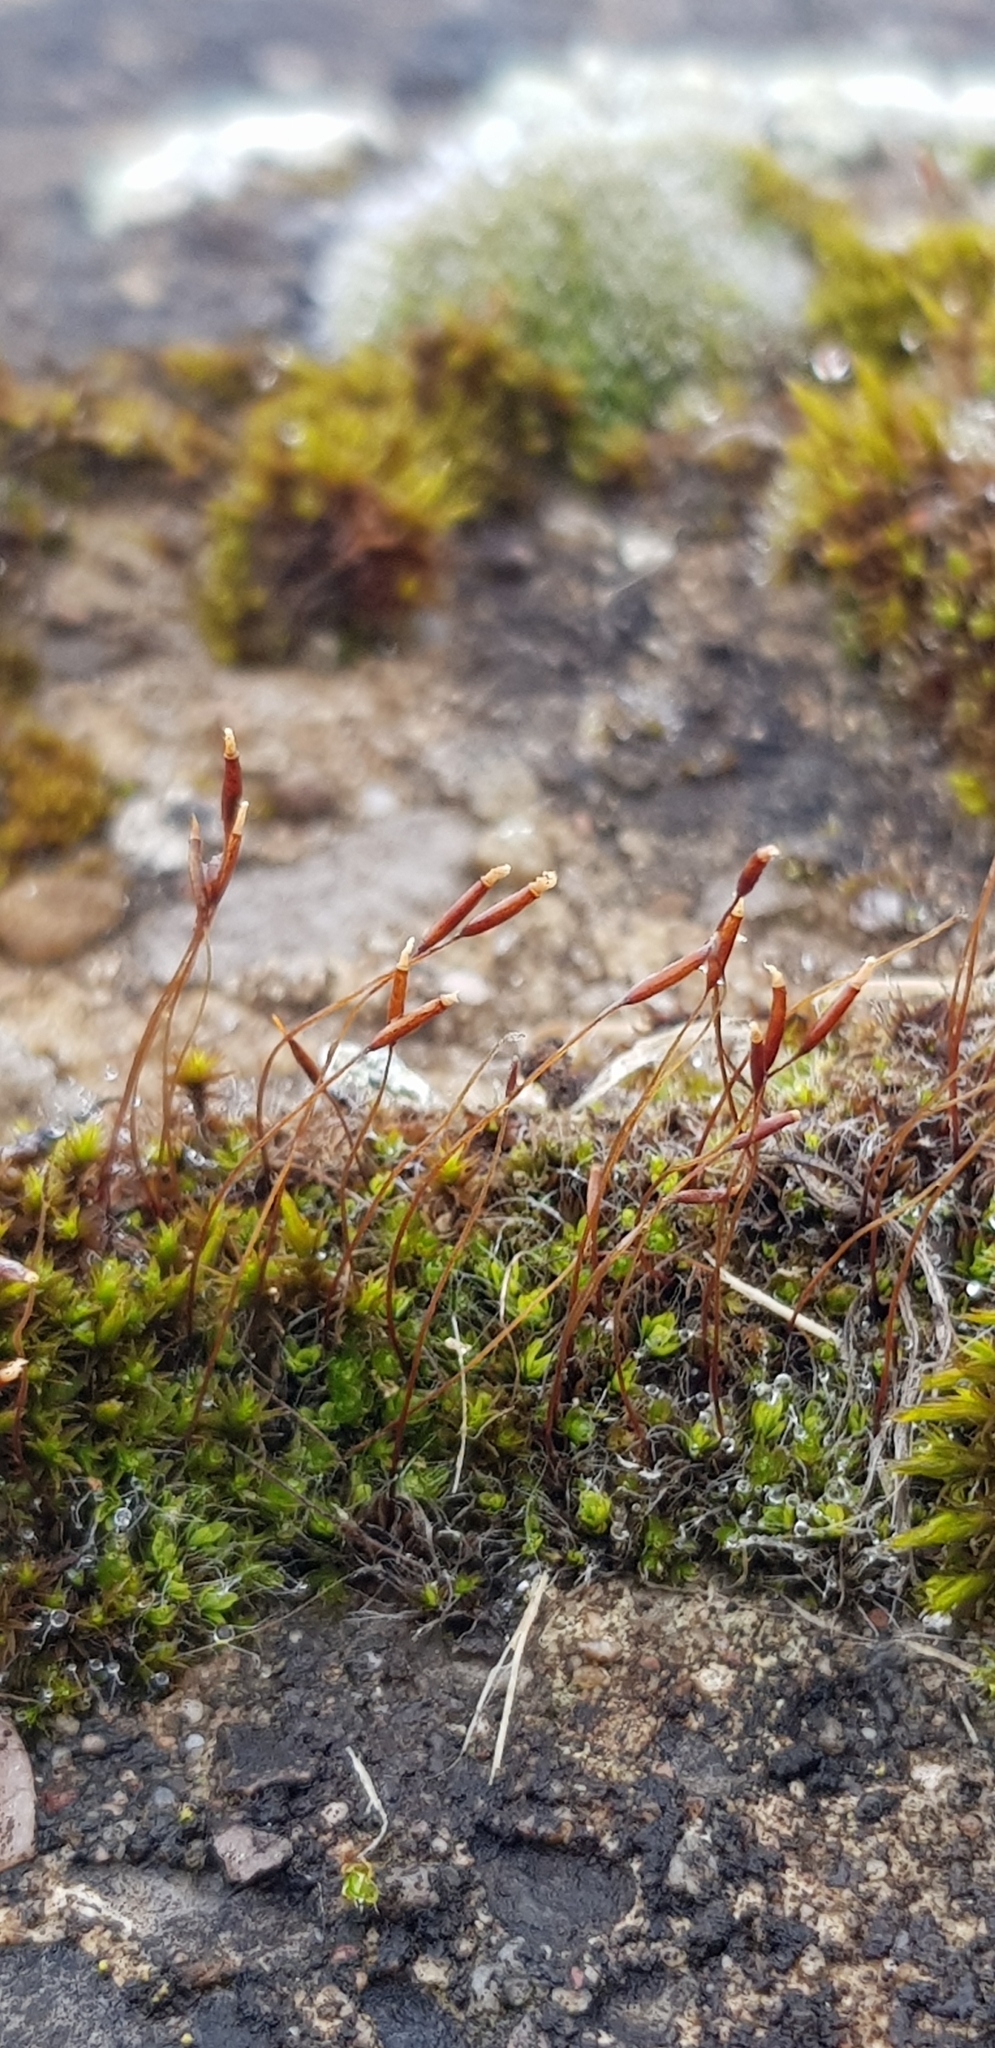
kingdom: Plantae
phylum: Bryophyta
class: Bryopsida
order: Pottiales
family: Pottiaceae
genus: Tortula
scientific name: Tortula muralis
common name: Wall screw-moss
